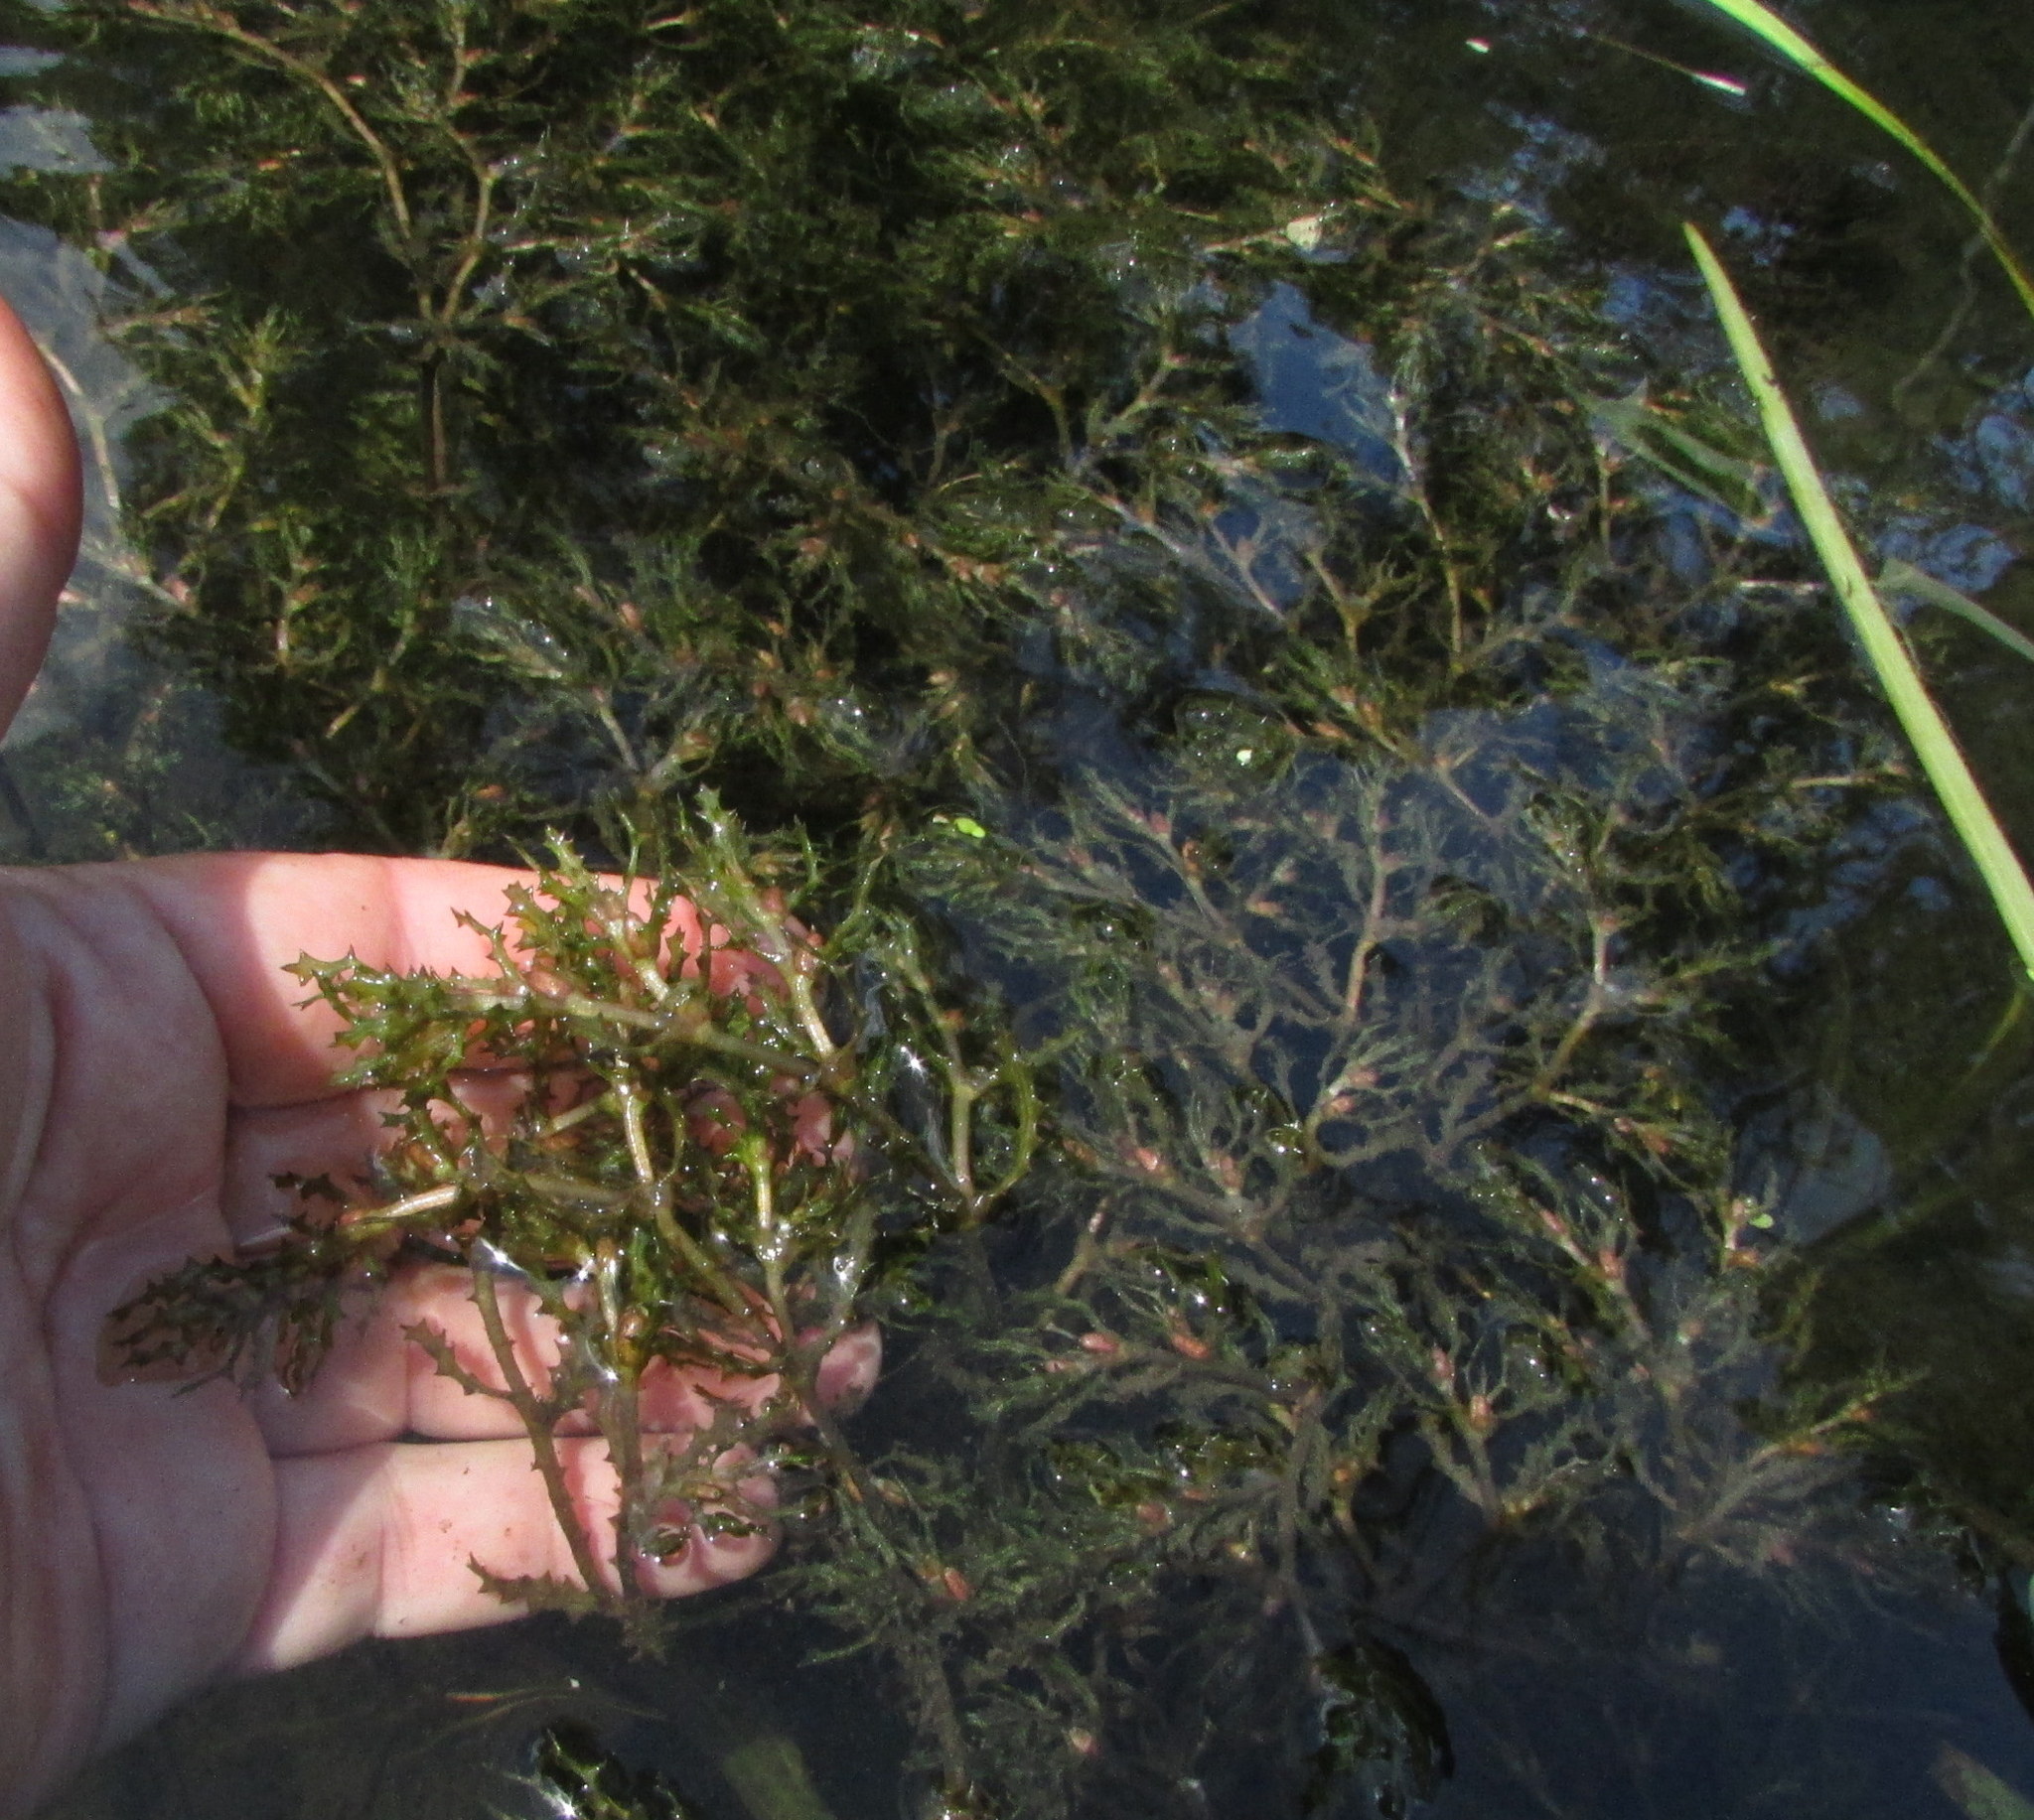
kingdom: Plantae
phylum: Tracheophyta
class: Liliopsida
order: Alismatales
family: Hydrocharitaceae
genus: Najas
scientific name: Najas marina
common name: Holly-leaved naiad
